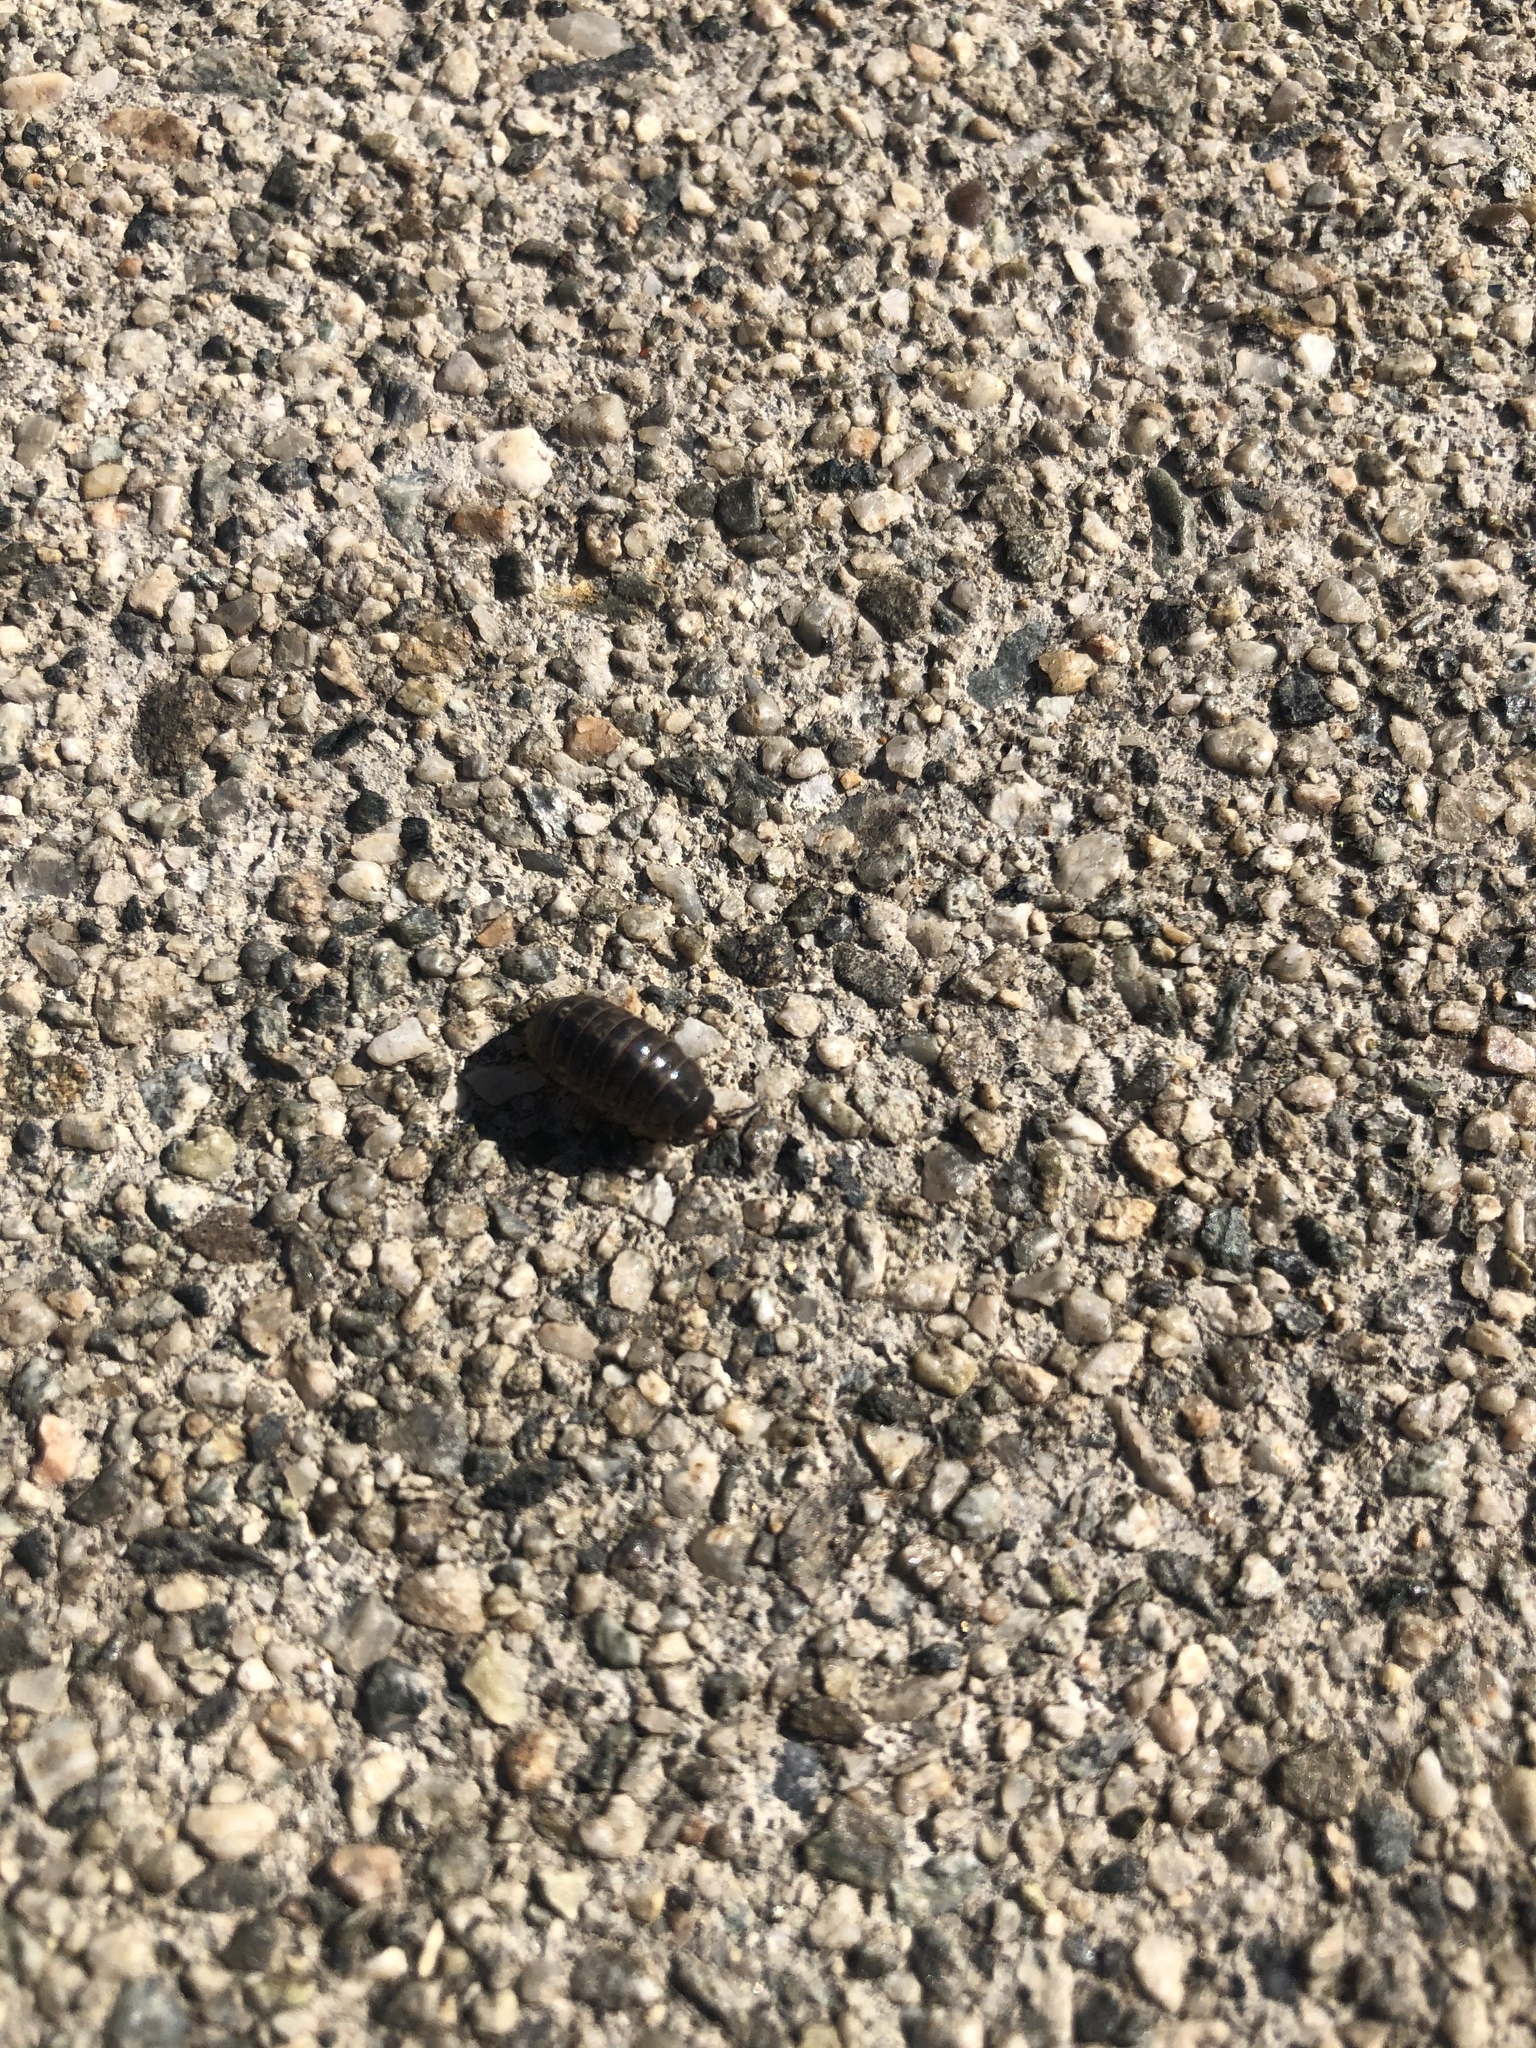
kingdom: Animalia
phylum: Arthropoda
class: Malacostraca
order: Isopoda
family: Armadillidiidae
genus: Armadillidium
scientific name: Armadillidium vulgare
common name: Common pill woodlouse
